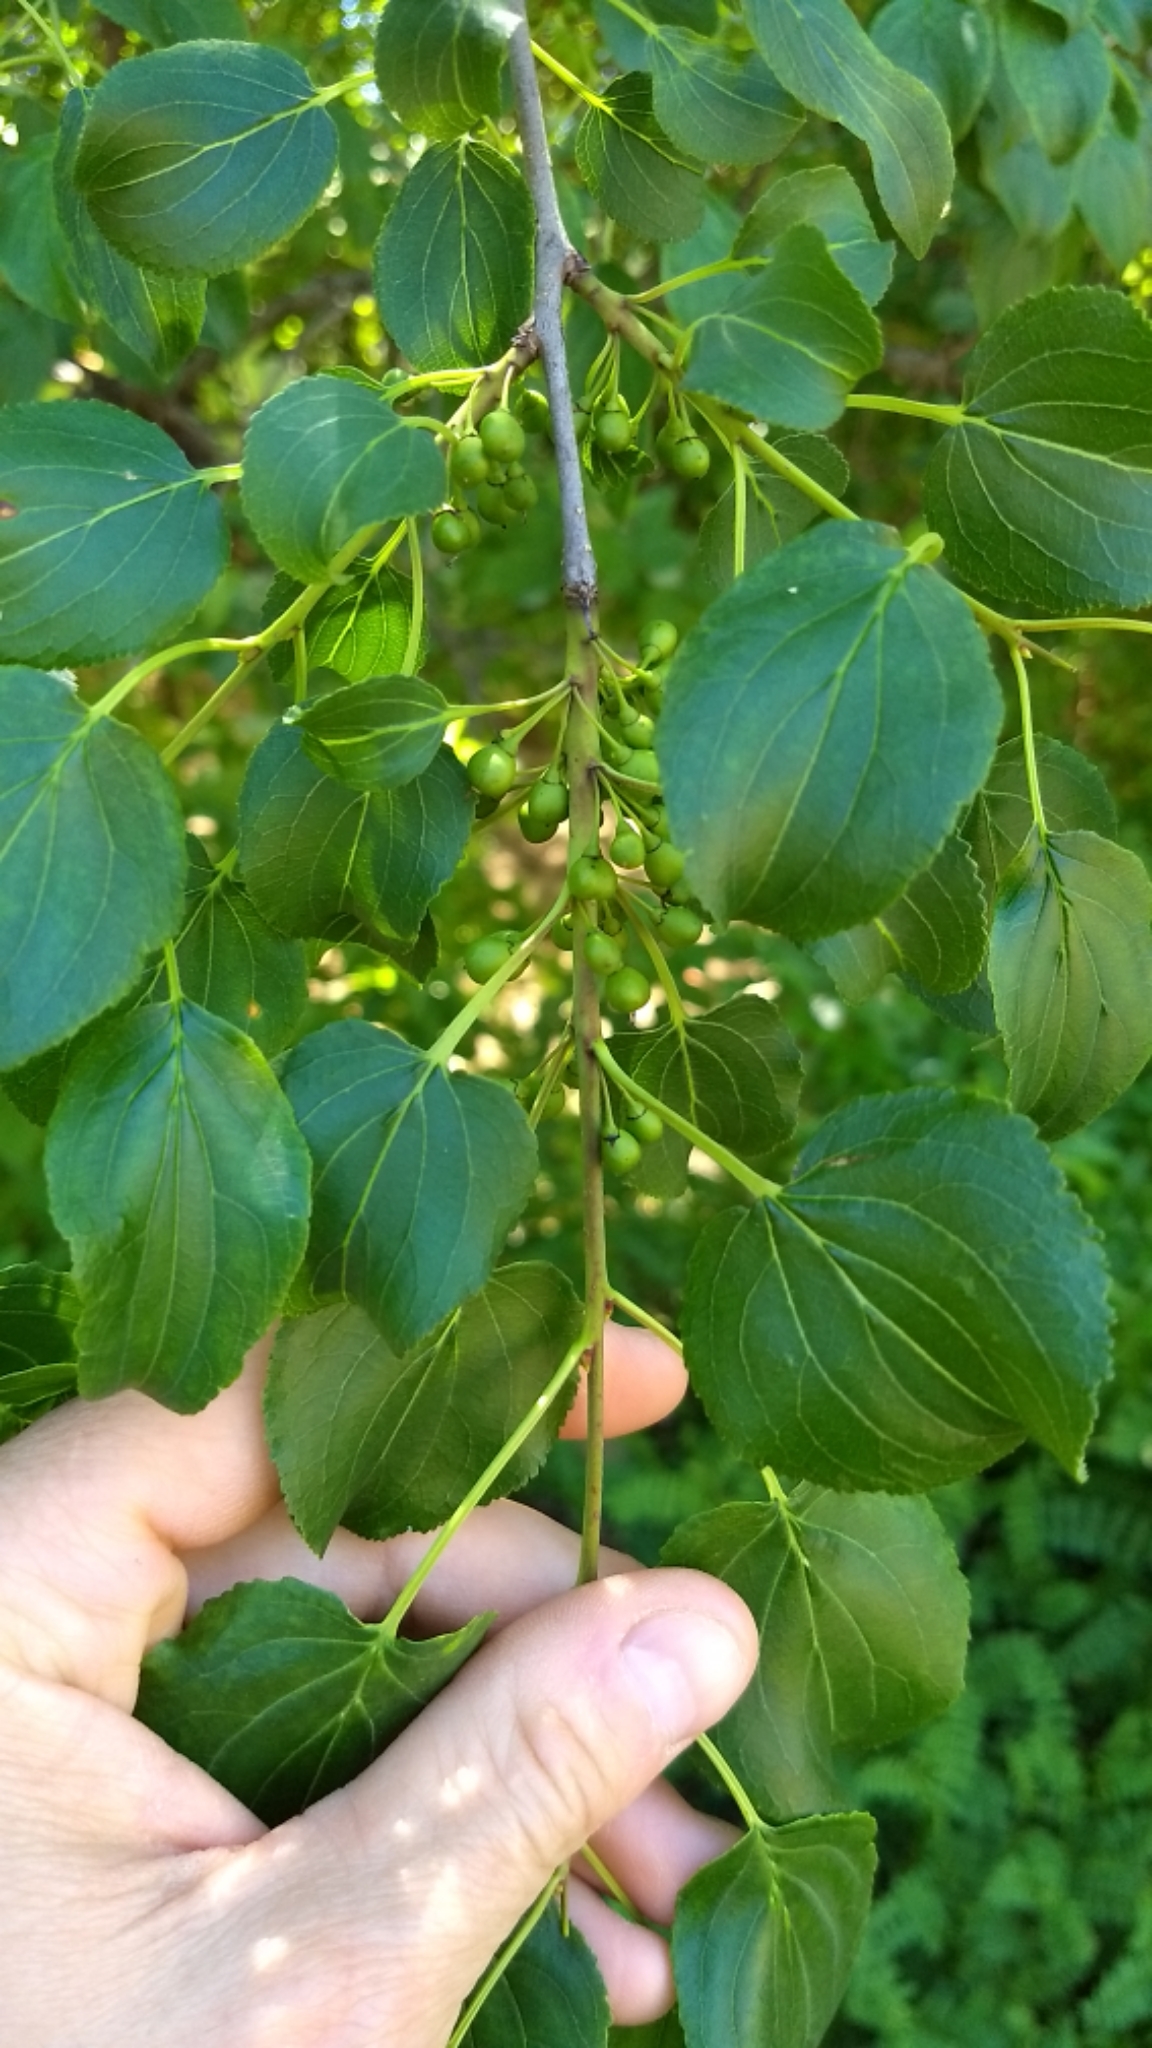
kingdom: Plantae
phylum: Tracheophyta
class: Magnoliopsida
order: Rosales
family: Rhamnaceae
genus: Rhamnus
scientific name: Rhamnus cathartica
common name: Common buckthorn
